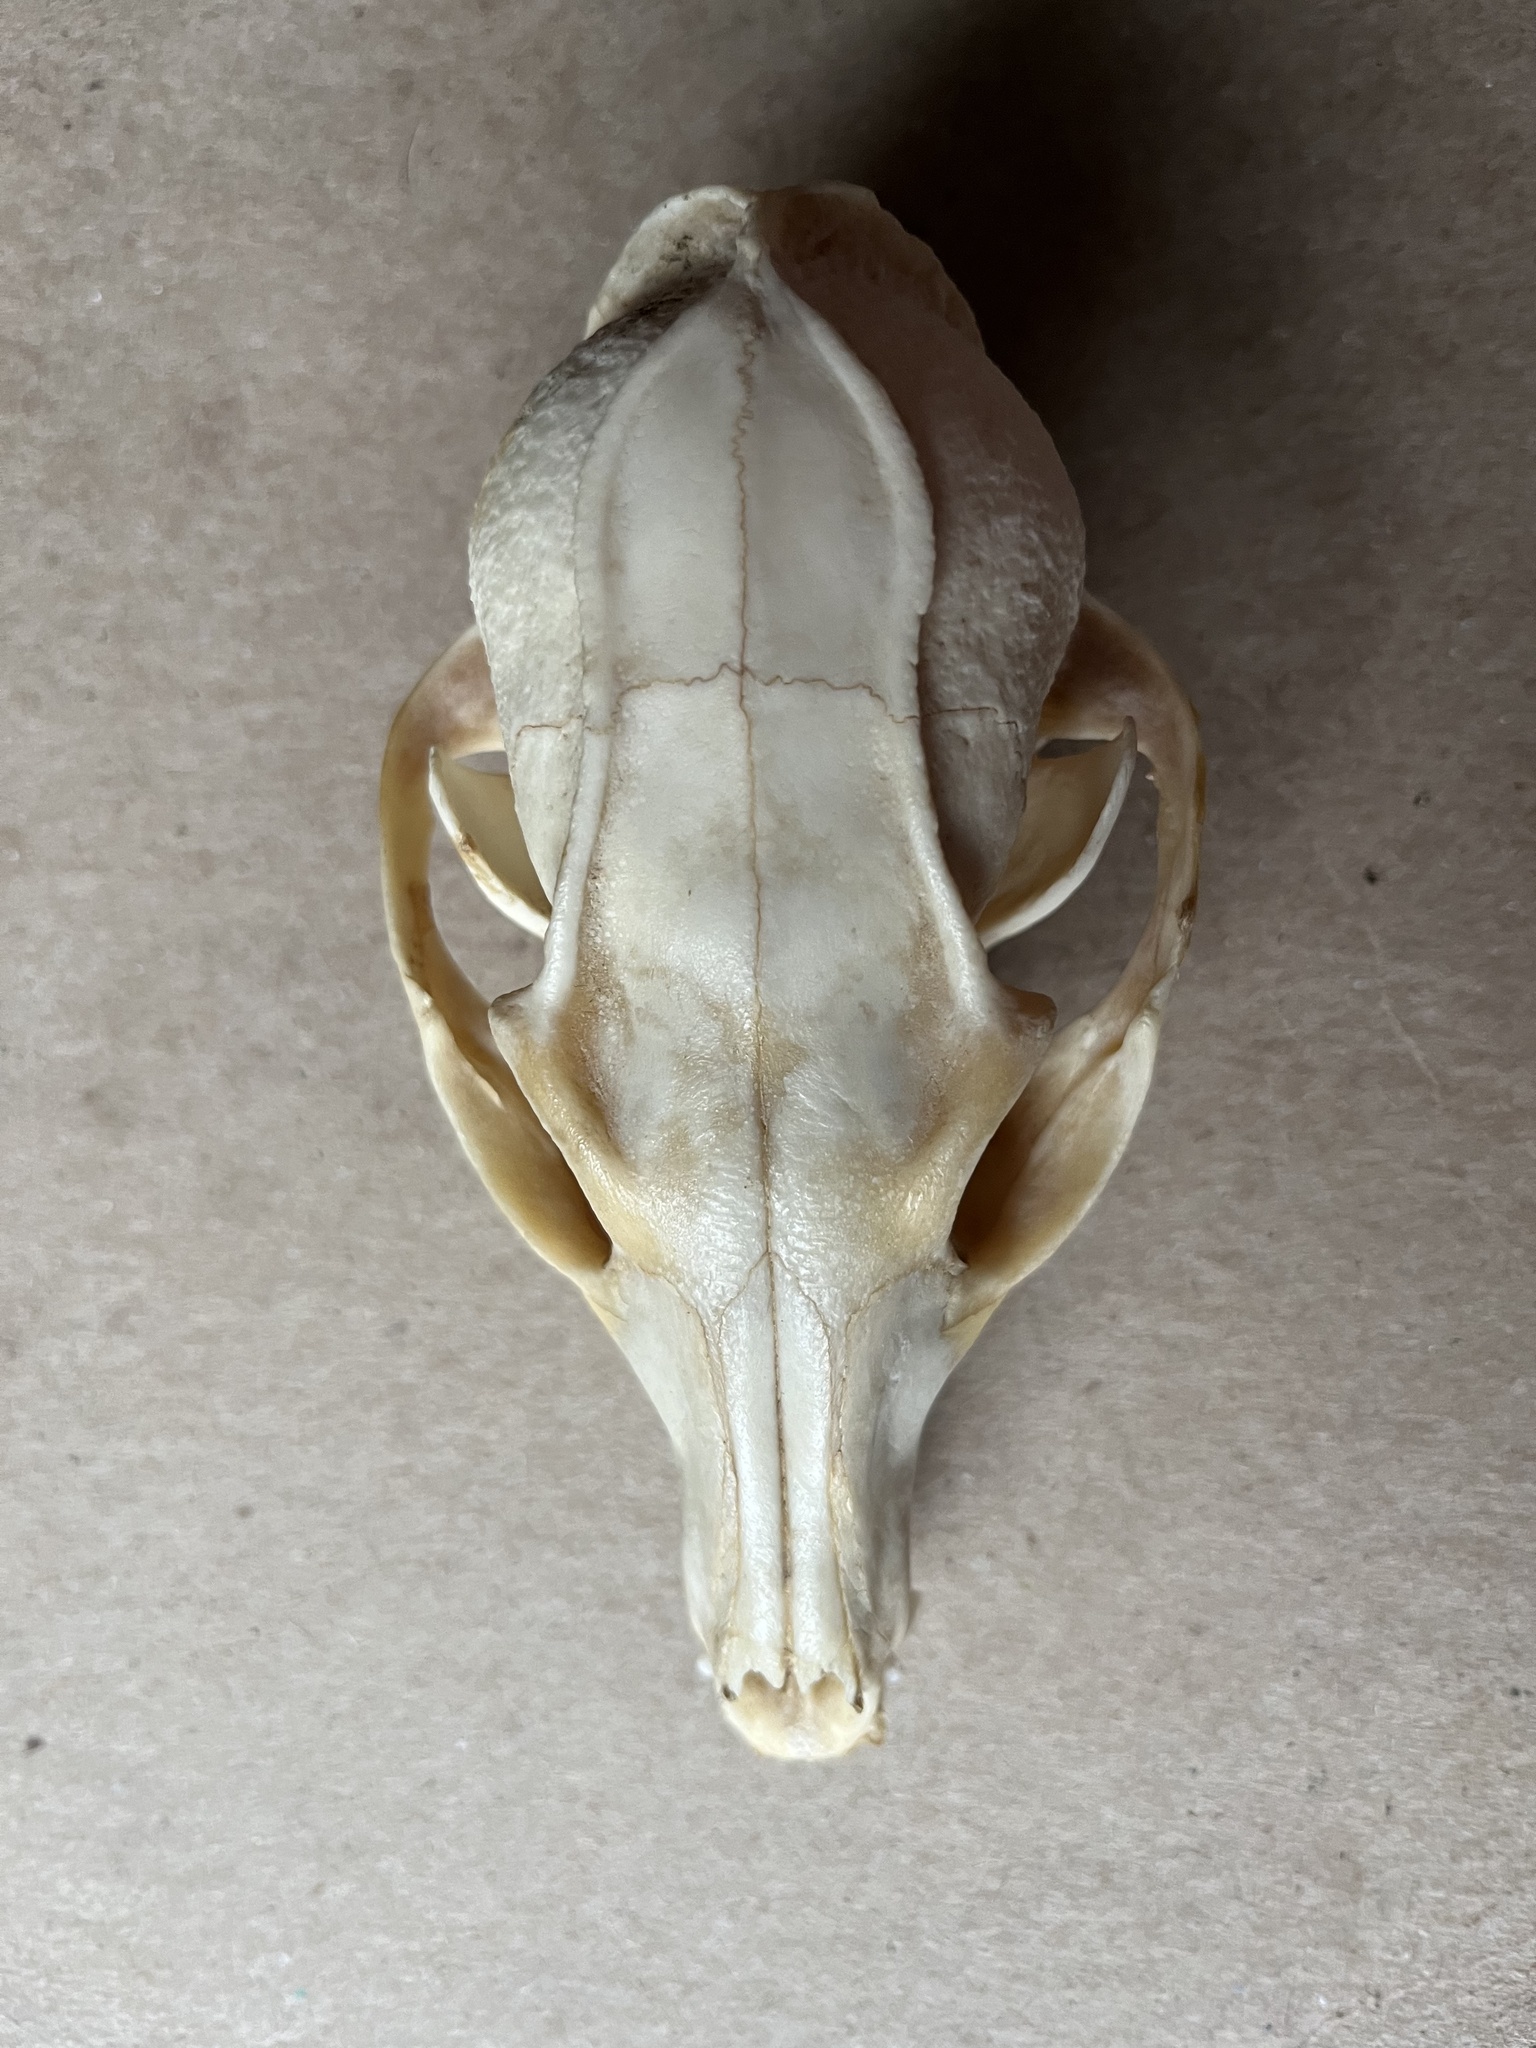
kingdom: Animalia
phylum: Chordata
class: Mammalia
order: Carnivora
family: Canidae
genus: Urocyon
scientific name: Urocyon cinereoargenteus
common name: Gray fox
